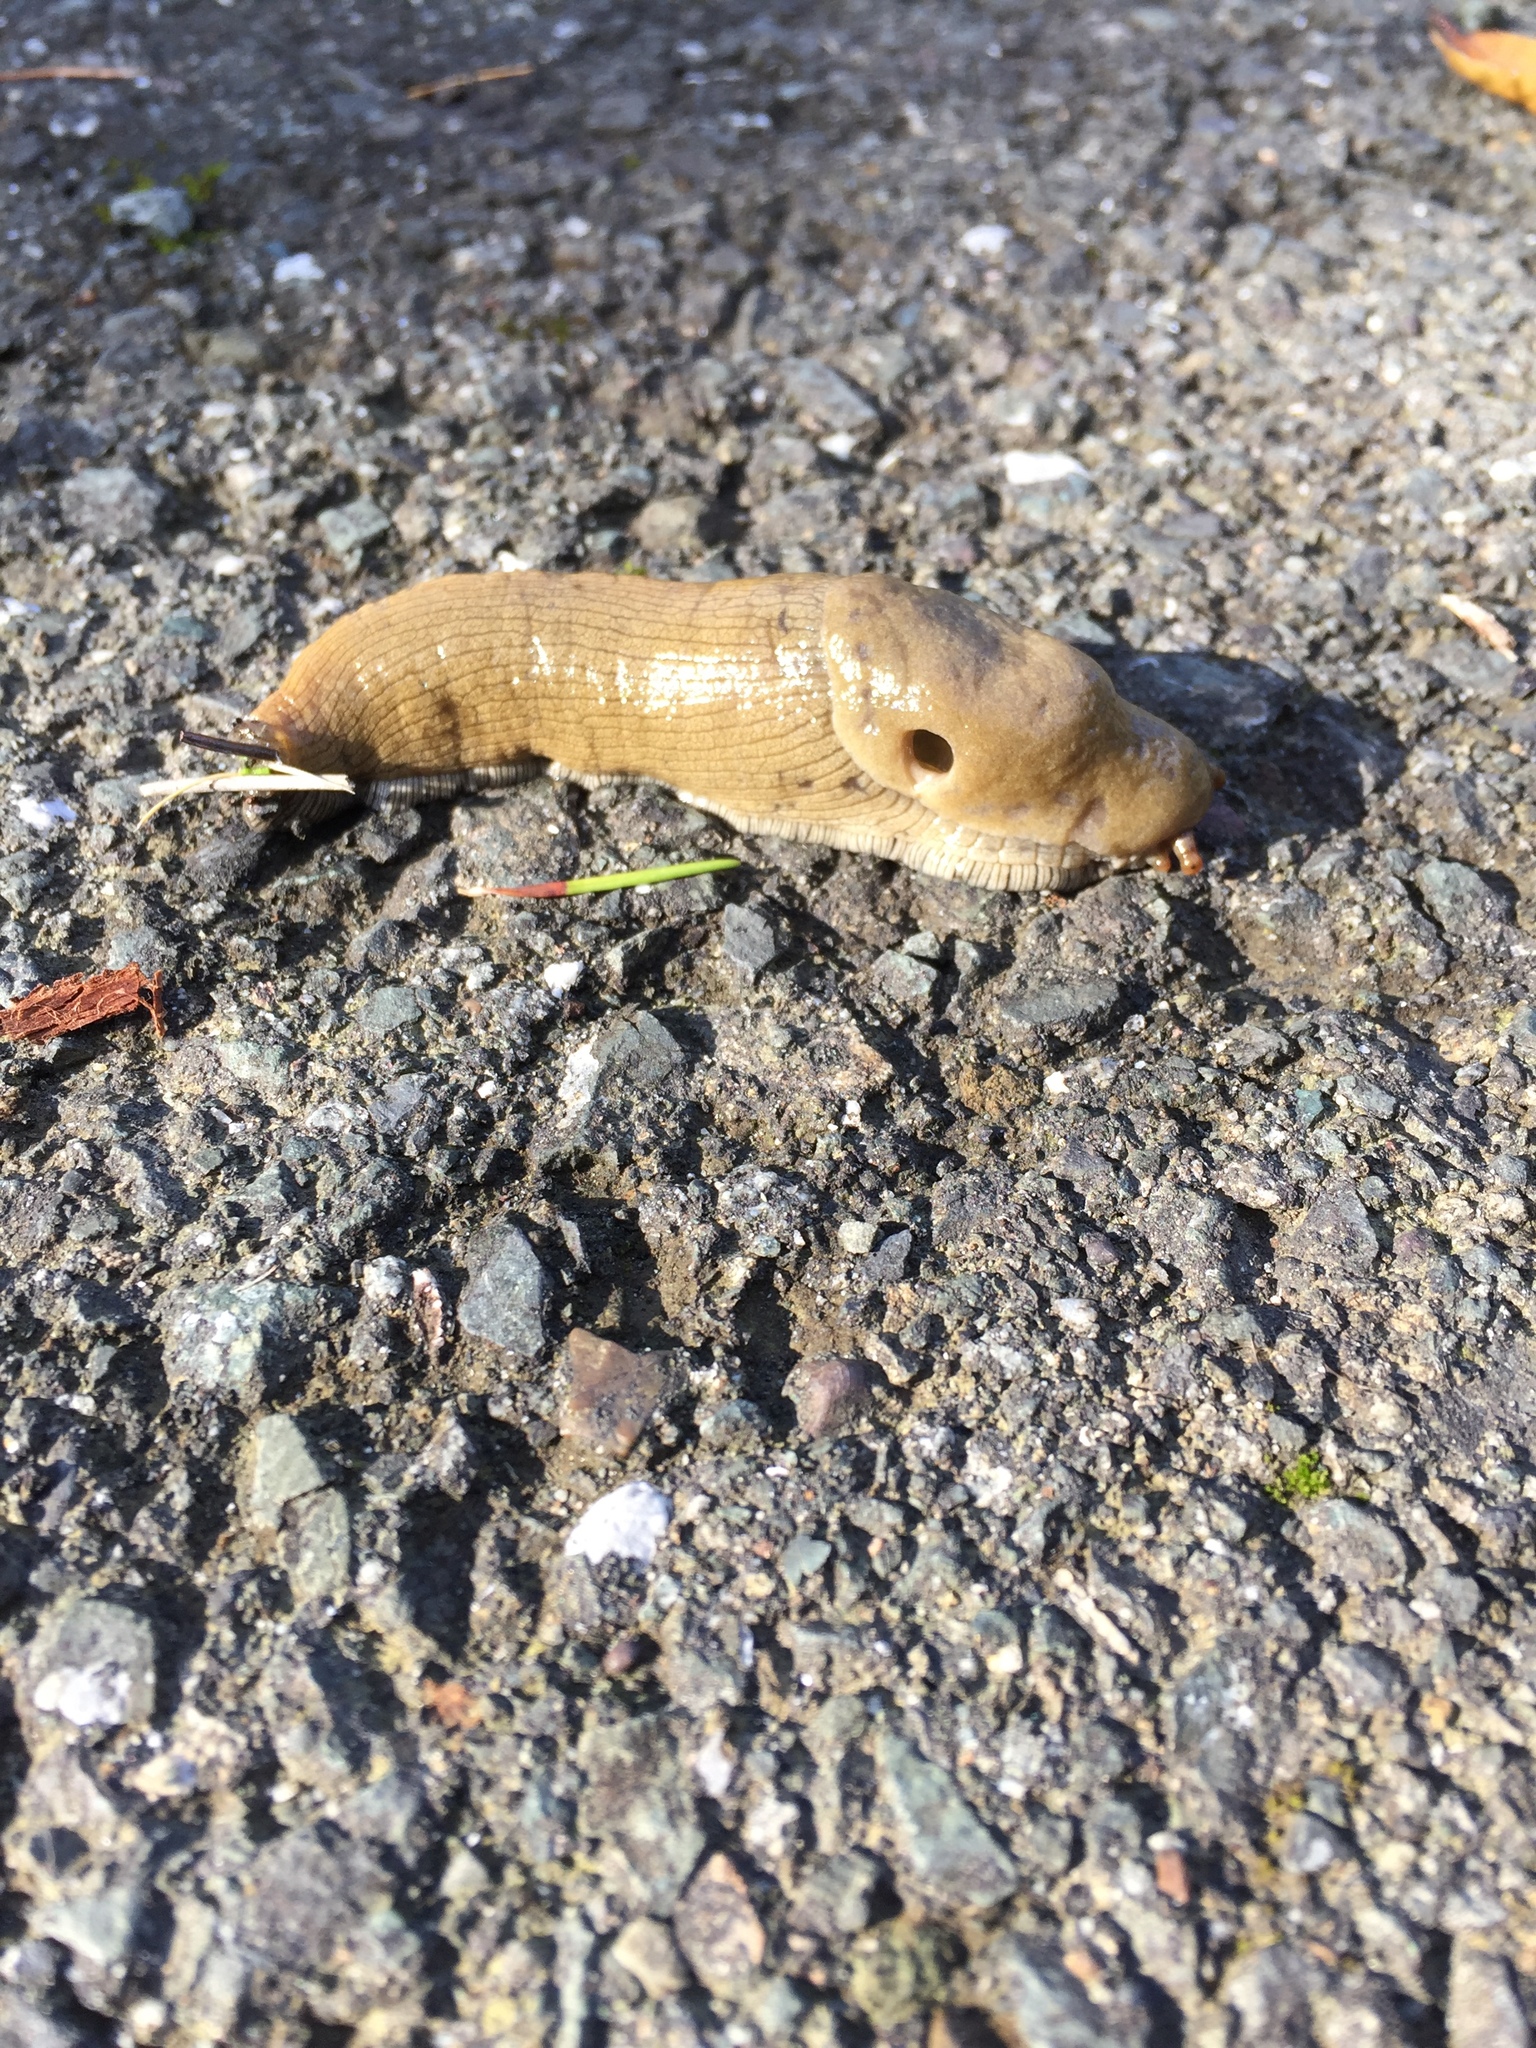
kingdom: Animalia
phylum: Mollusca
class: Gastropoda
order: Stylommatophora
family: Ariolimacidae
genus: Ariolimax
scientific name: Ariolimax buttoni
